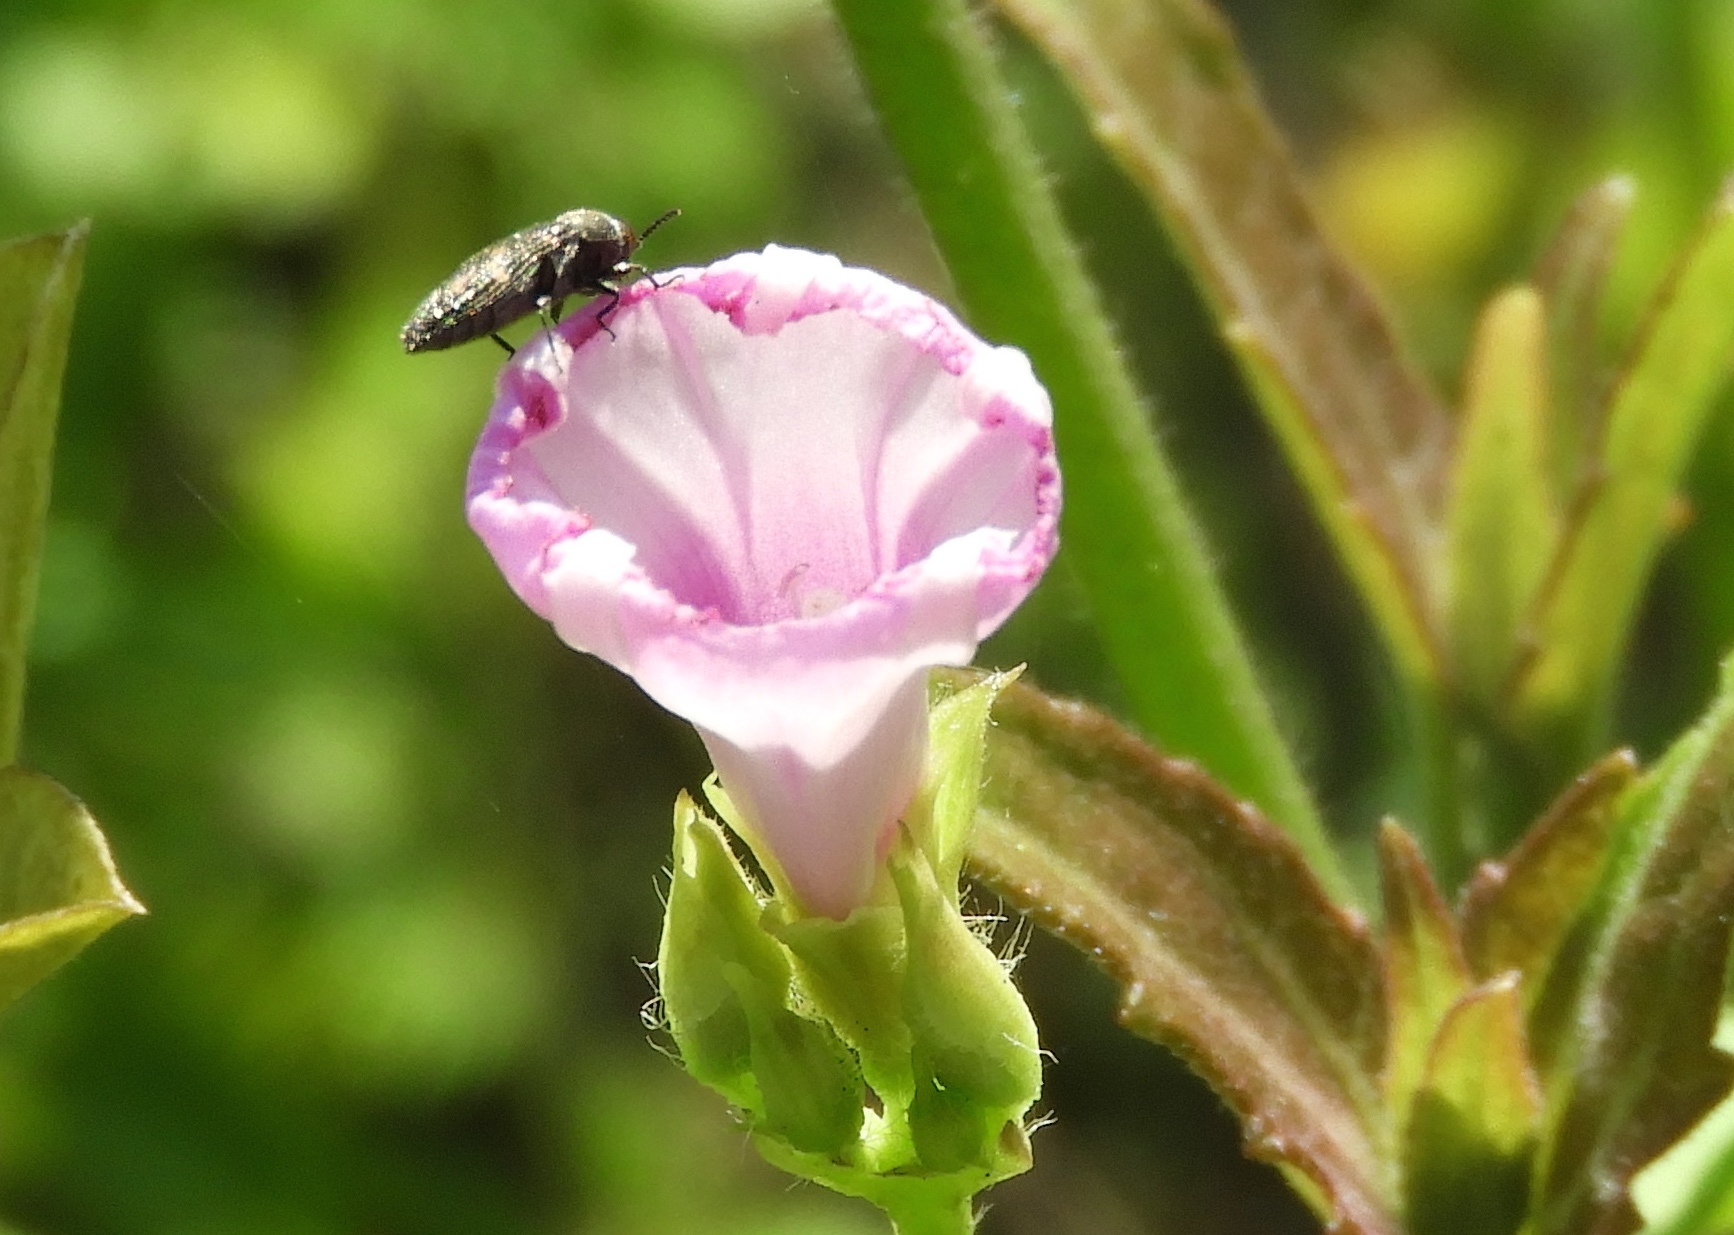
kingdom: Plantae
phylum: Tracheophyta
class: Magnoliopsida
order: Solanales
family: Convolvulaceae
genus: Ipomoea
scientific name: Ipomoea triloba
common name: Little-bell
